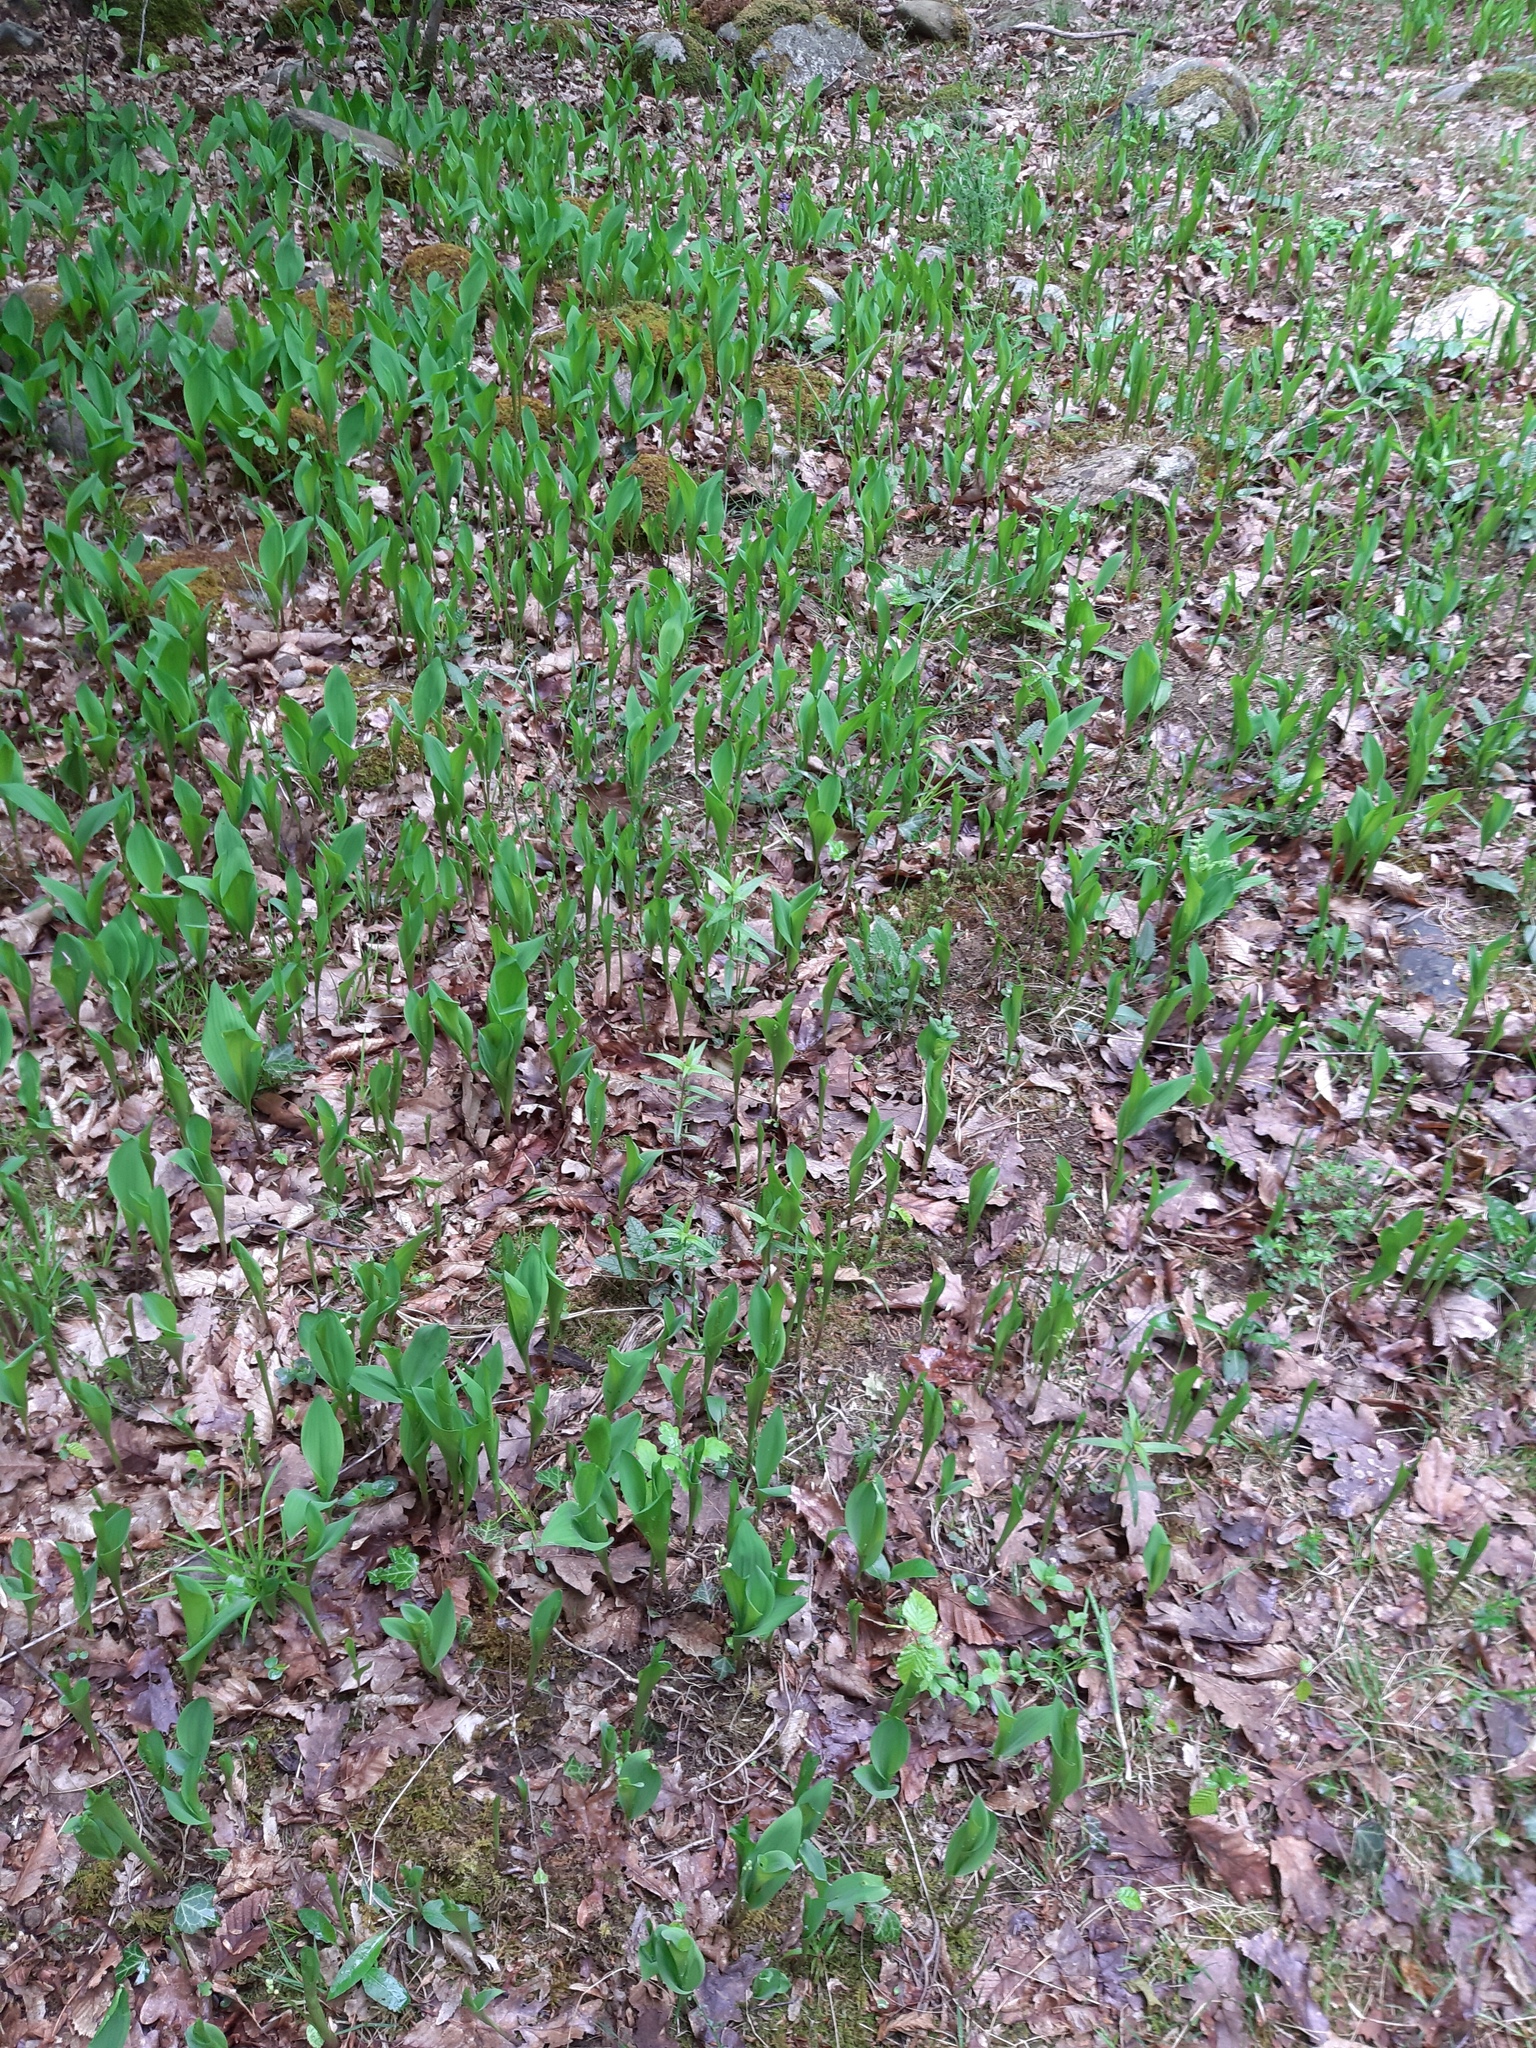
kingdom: Plantae
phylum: Tracheophyta
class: Liliopsida
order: Asparagales
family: Asparagaceae
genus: Convallaria
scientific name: Convallaria majalis
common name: Lily-of-the-valley
